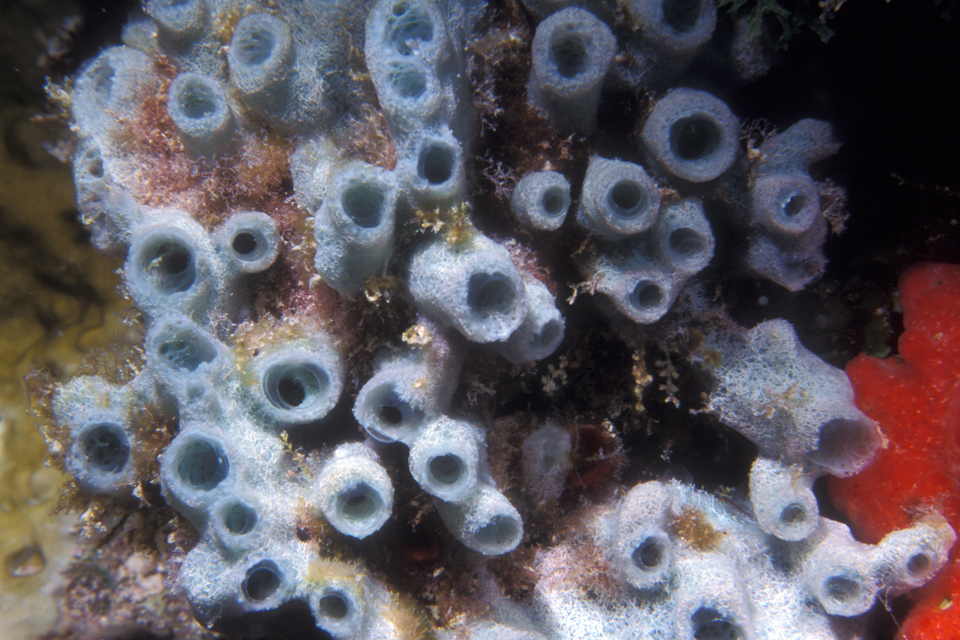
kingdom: Animalia
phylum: Porifera
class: Demospongiae
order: Haplosclerida
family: Chalinidae
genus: Haliclona
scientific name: Haliclona caerulea
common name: Blue caribbean sponge
